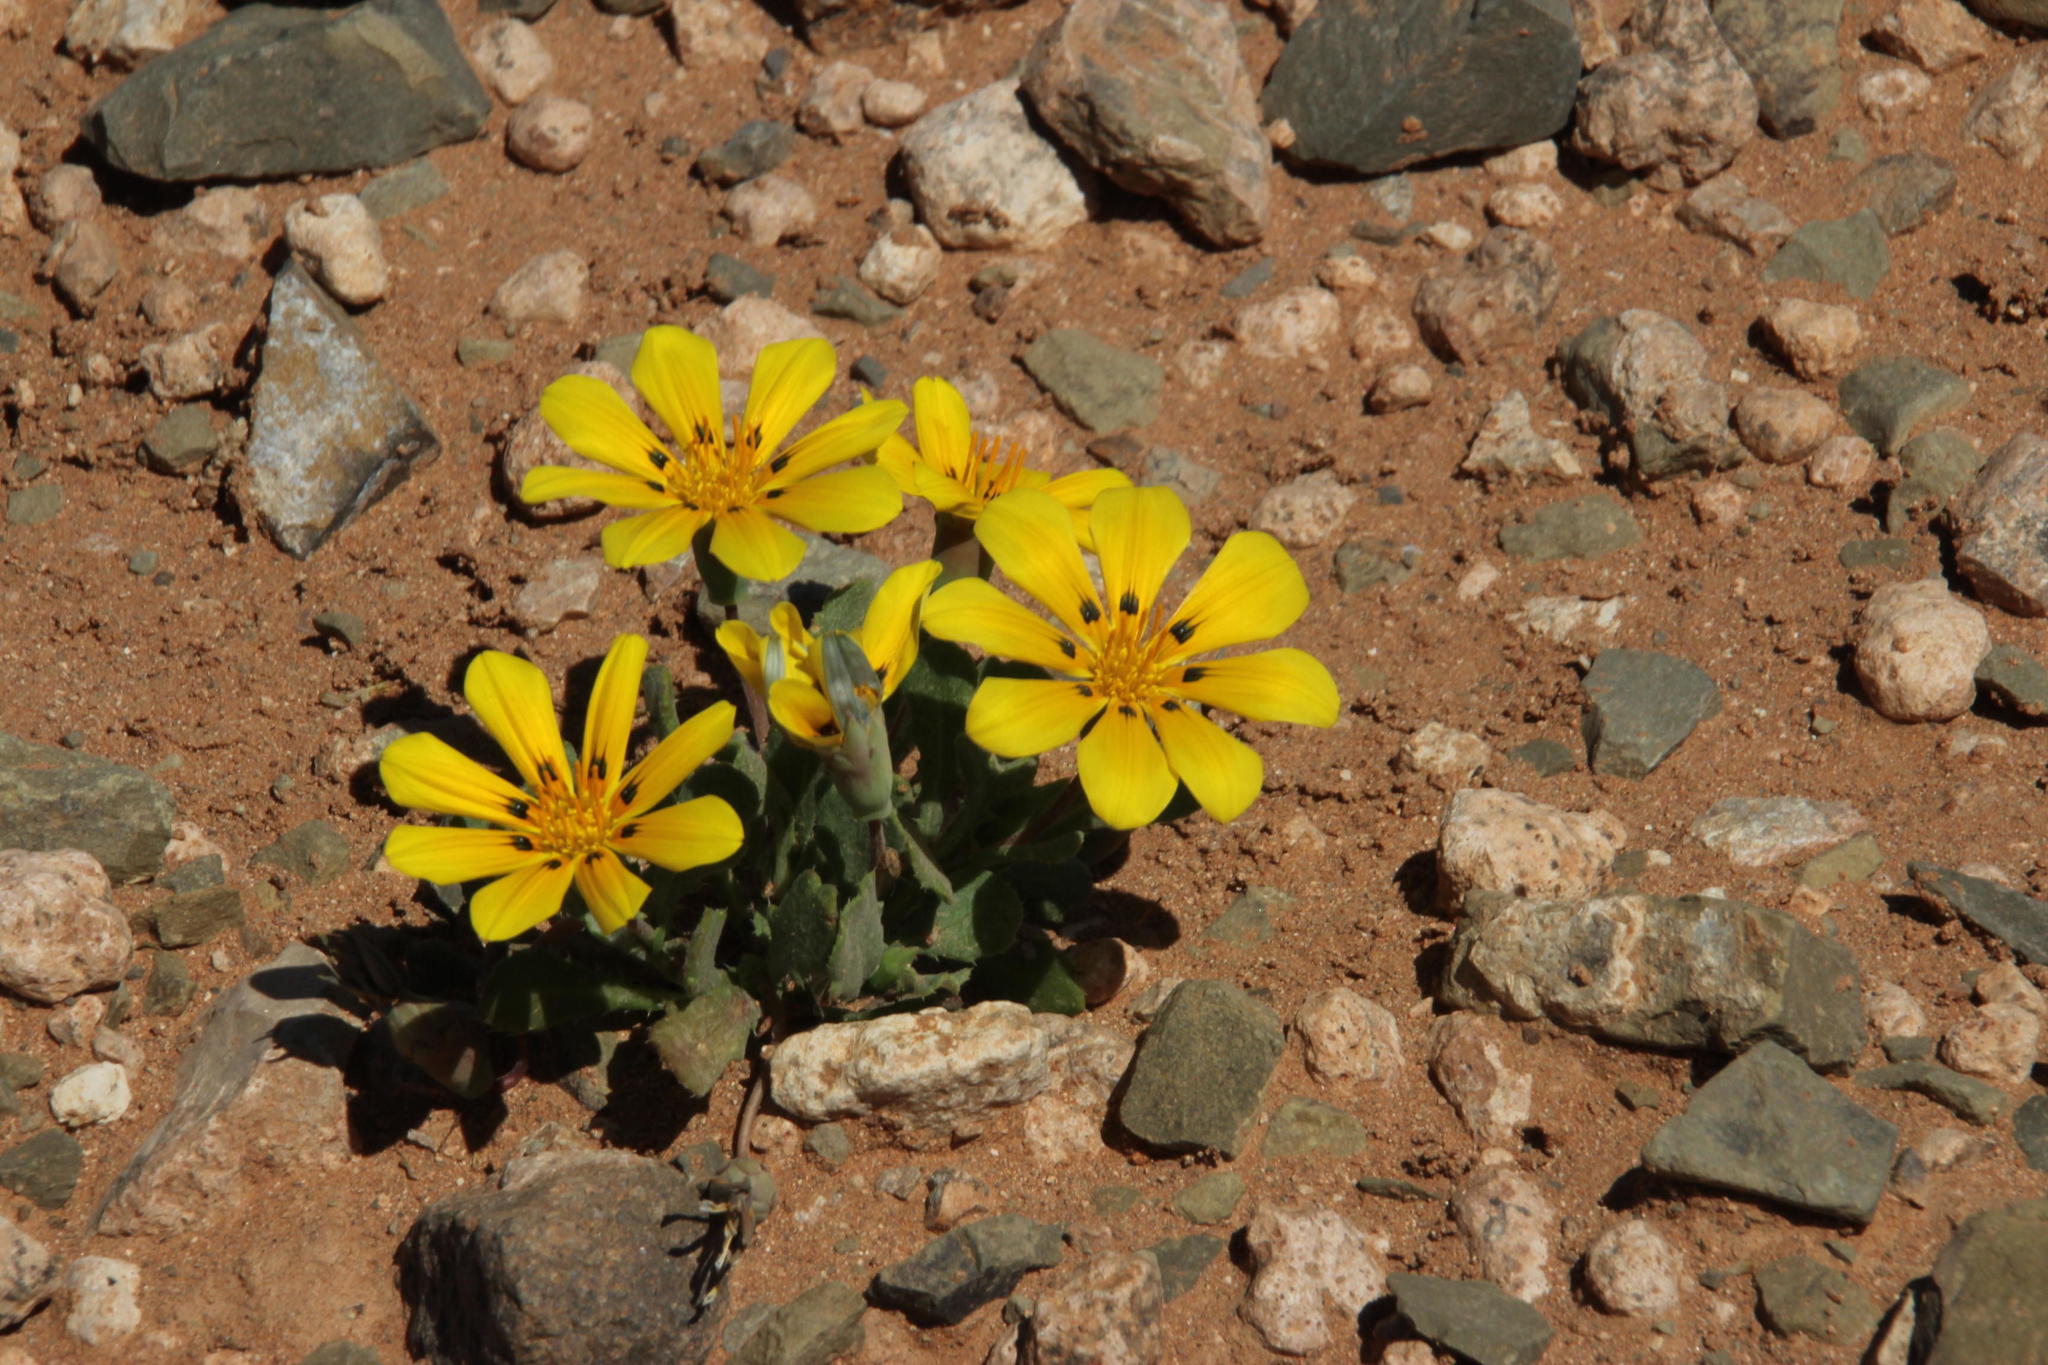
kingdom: Plantae
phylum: Tracheophyta
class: Magnoliopsida
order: Asterales
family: Asteraceae
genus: Gazania
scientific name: Gazania lichtensteinii
